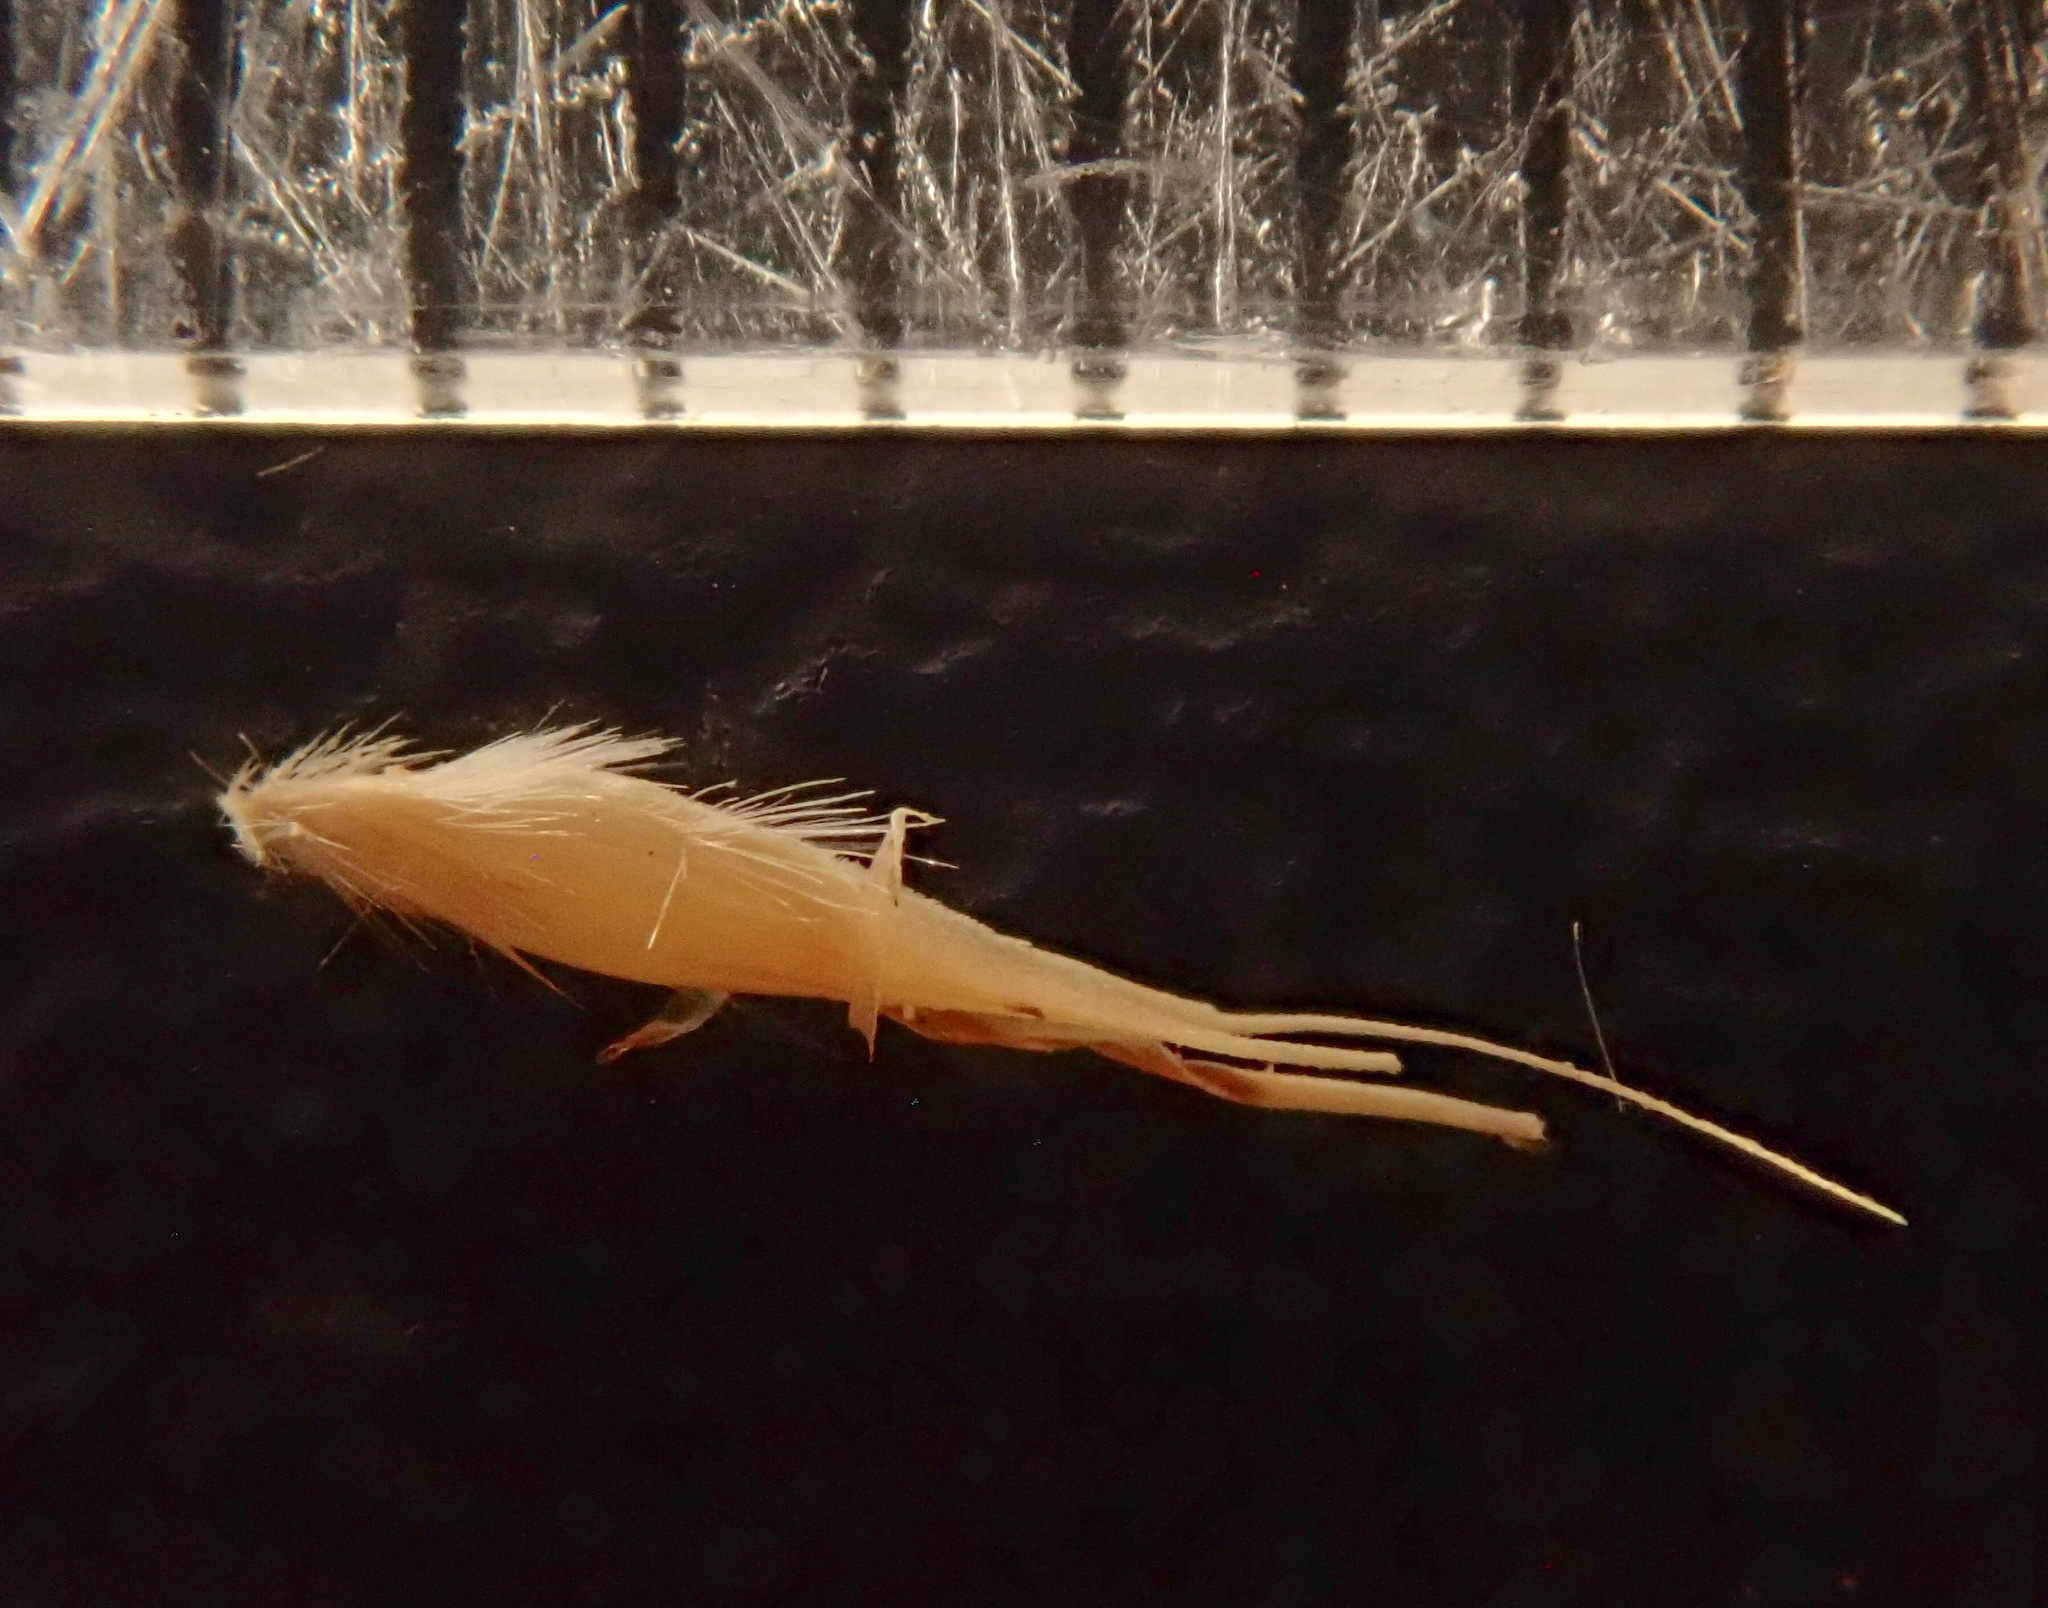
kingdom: Plantae
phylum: Tracheophyta
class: Liliopsida
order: Poales
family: Poaceae
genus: Rytidosperma
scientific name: Rytidosperma racemosum
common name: Wallaby-grass
